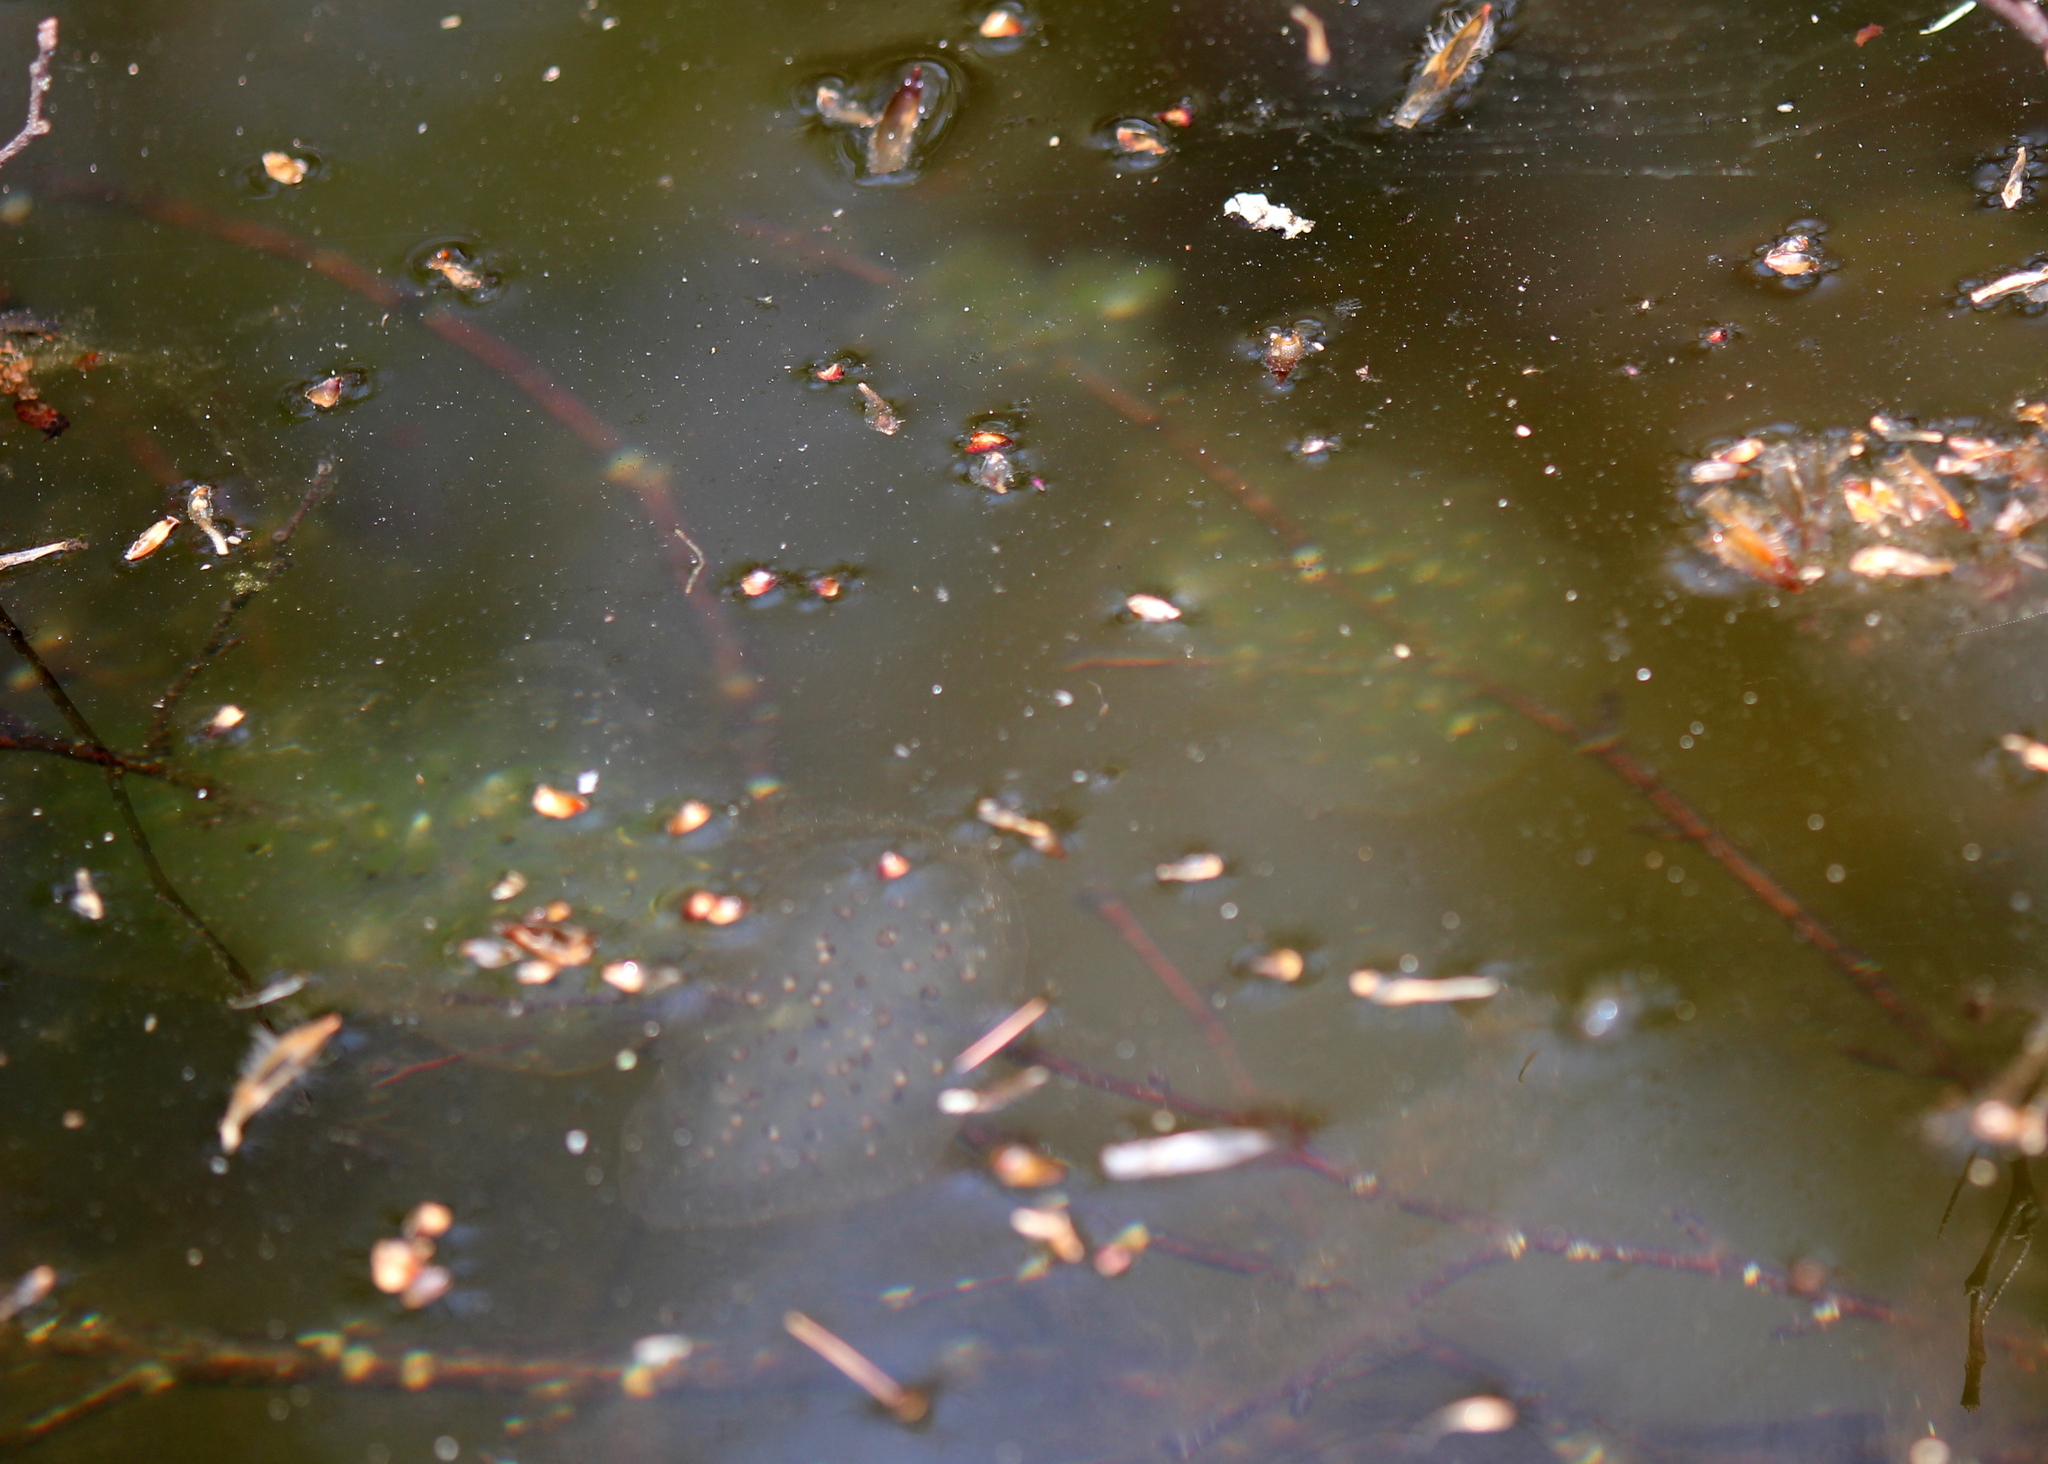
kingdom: Animalia
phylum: Chordata
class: Amphibia
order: Caudata
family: Ambystomatidae
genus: Ambystoma
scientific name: Ambystoma maculatum
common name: Spotted salamander
